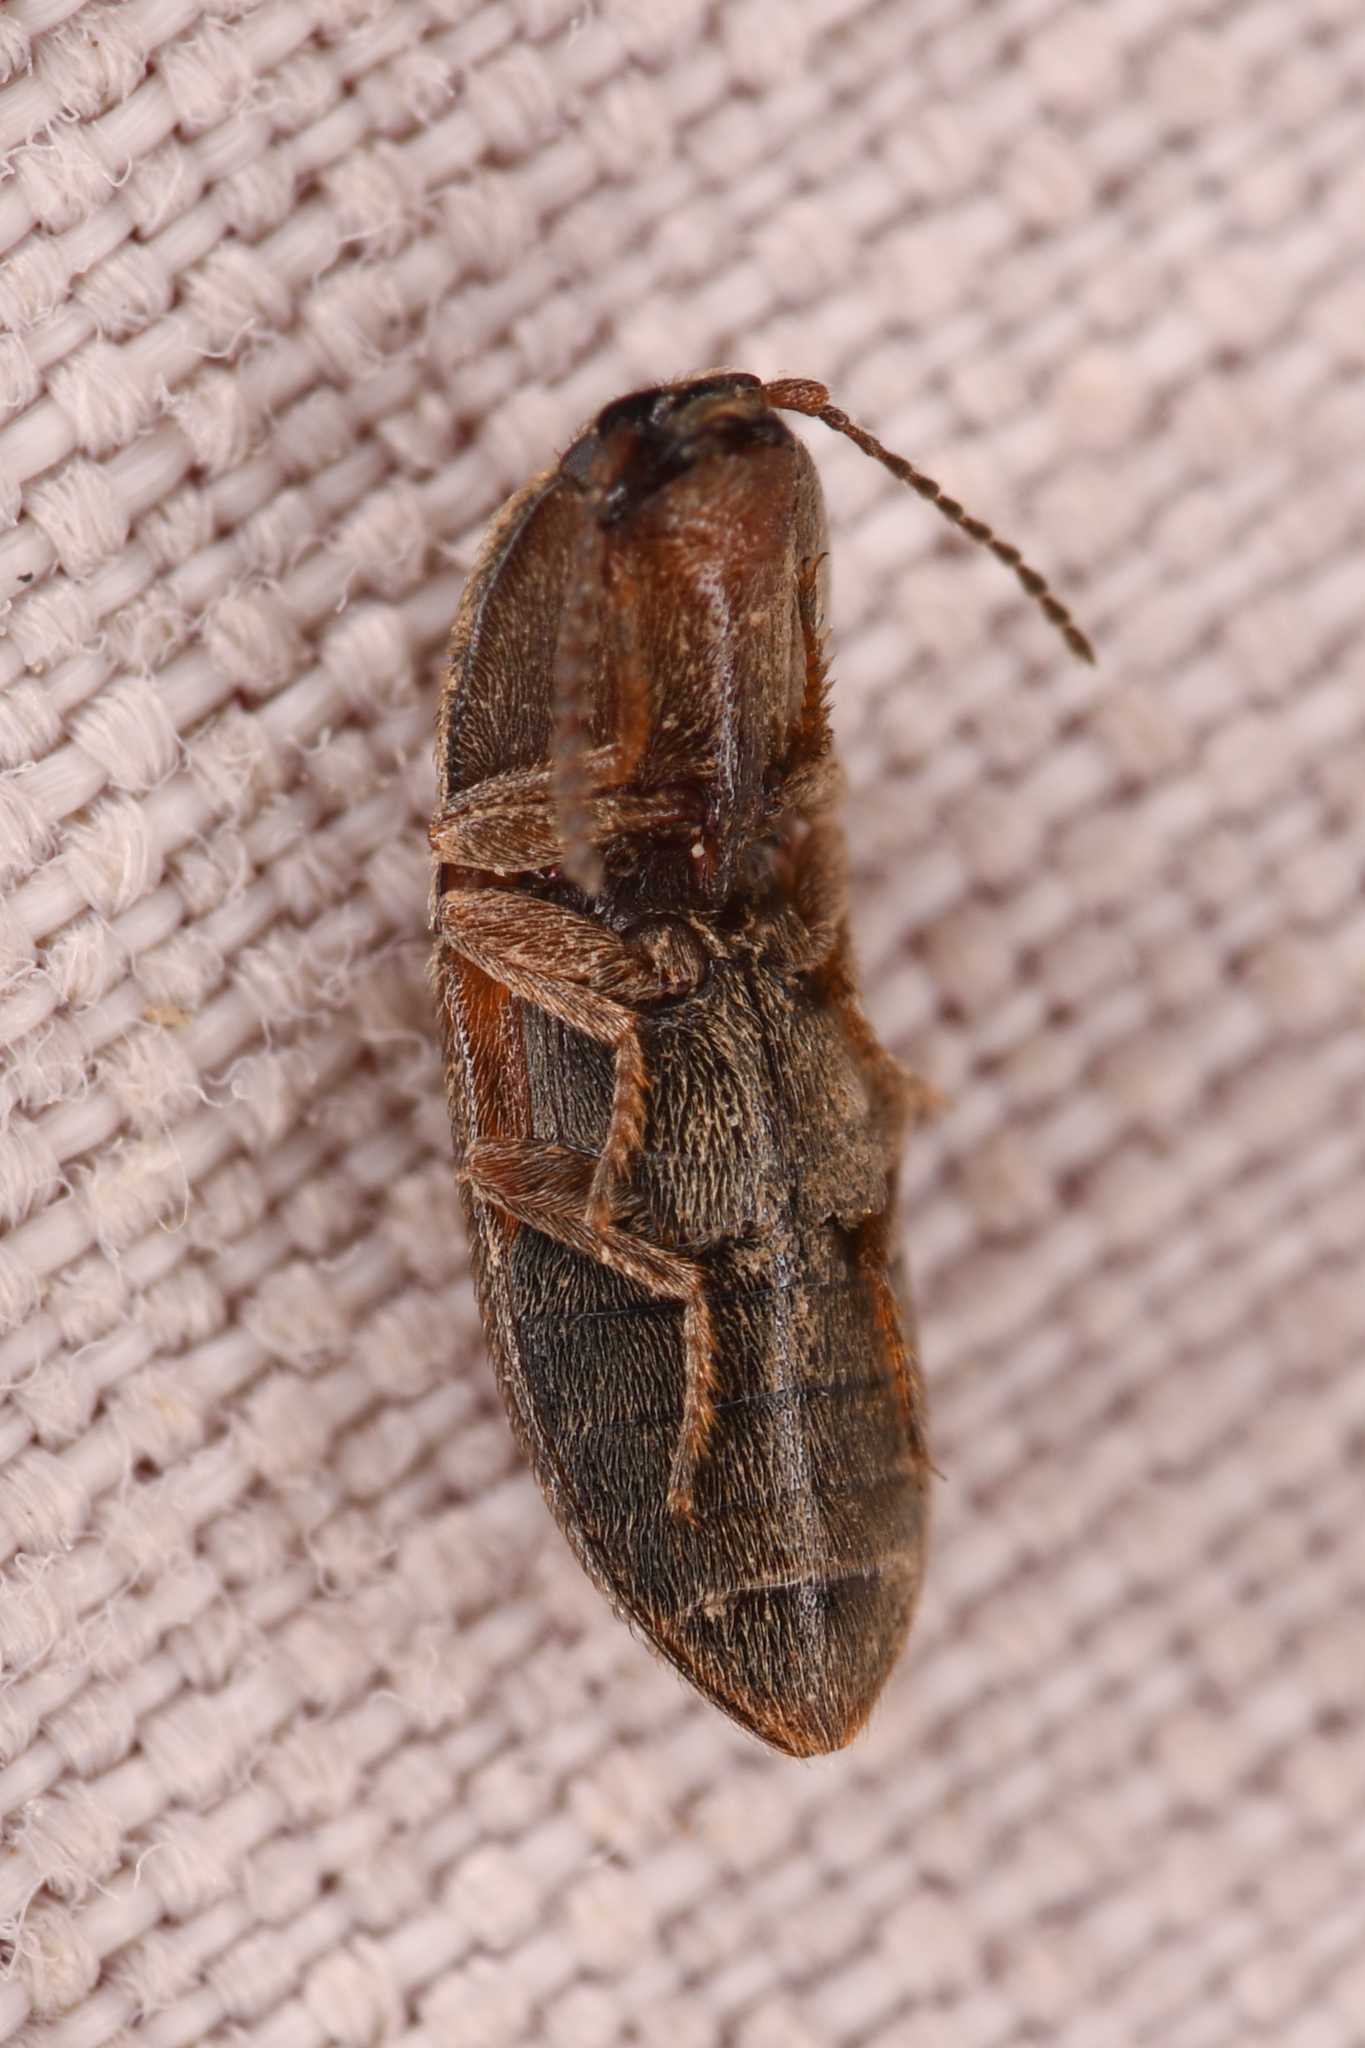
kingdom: Animalia
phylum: Arthropoda
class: Insecta
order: Coleoptera
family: Elateridae
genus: Hypnoidus
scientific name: Hypnoidus bicolor
